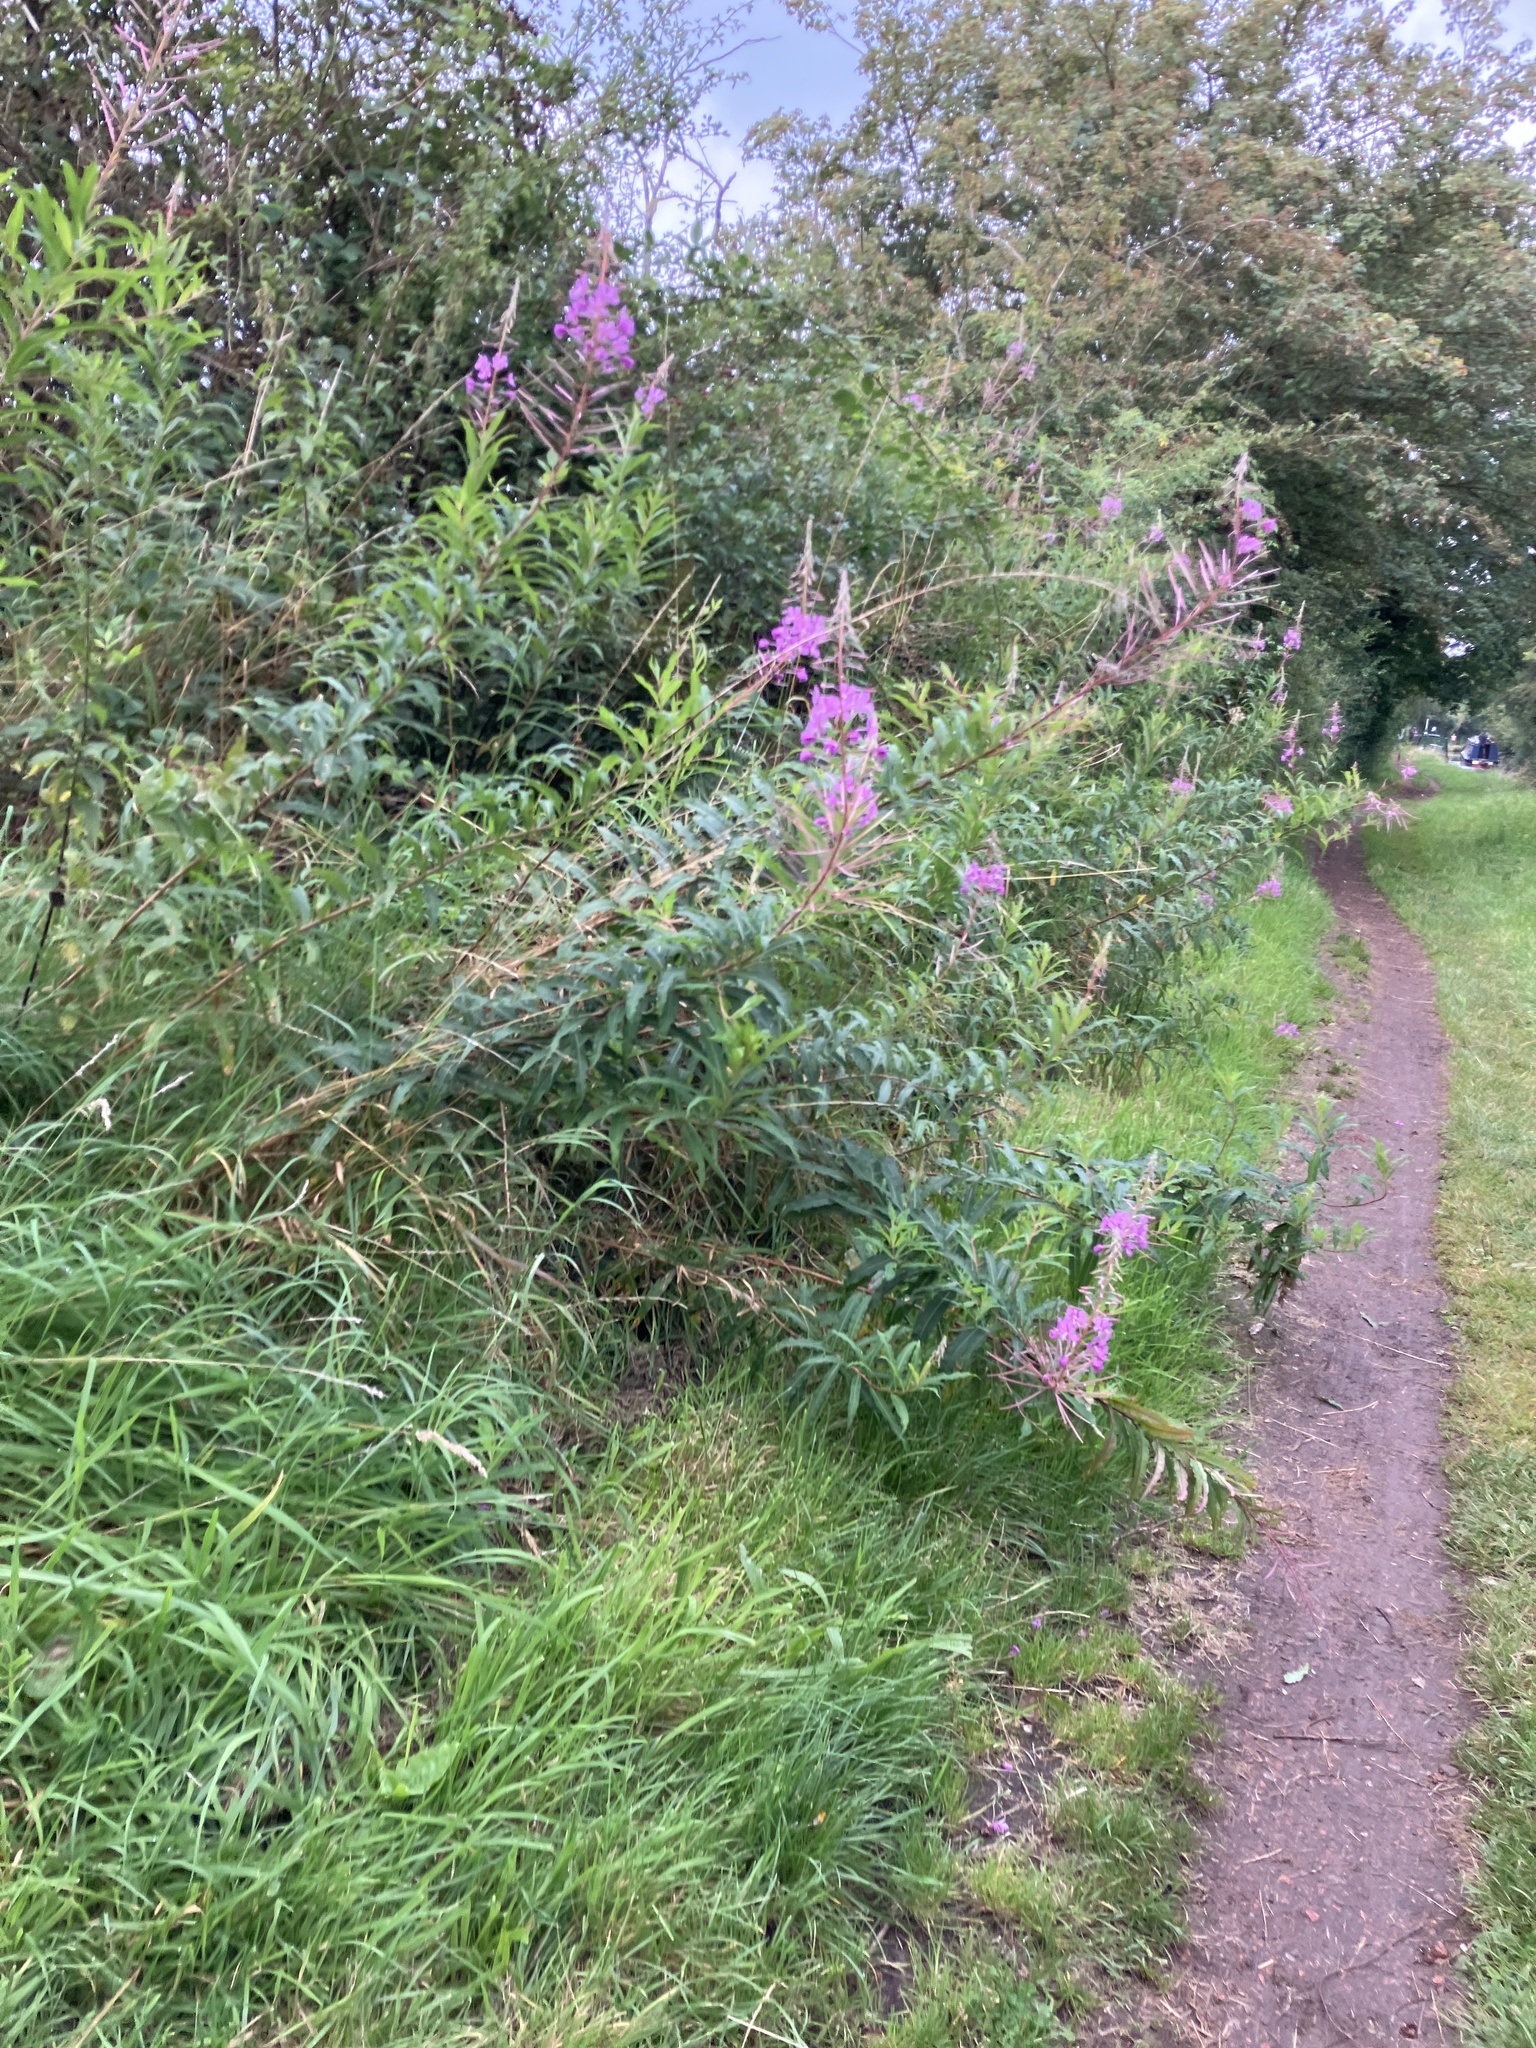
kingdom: Plantae
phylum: Tracheophyta
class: Magnoliopsida
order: Myrtales
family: Onagraceae
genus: Chamaenerion
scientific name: Chamaenerion angustifolium
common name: Fireweed
